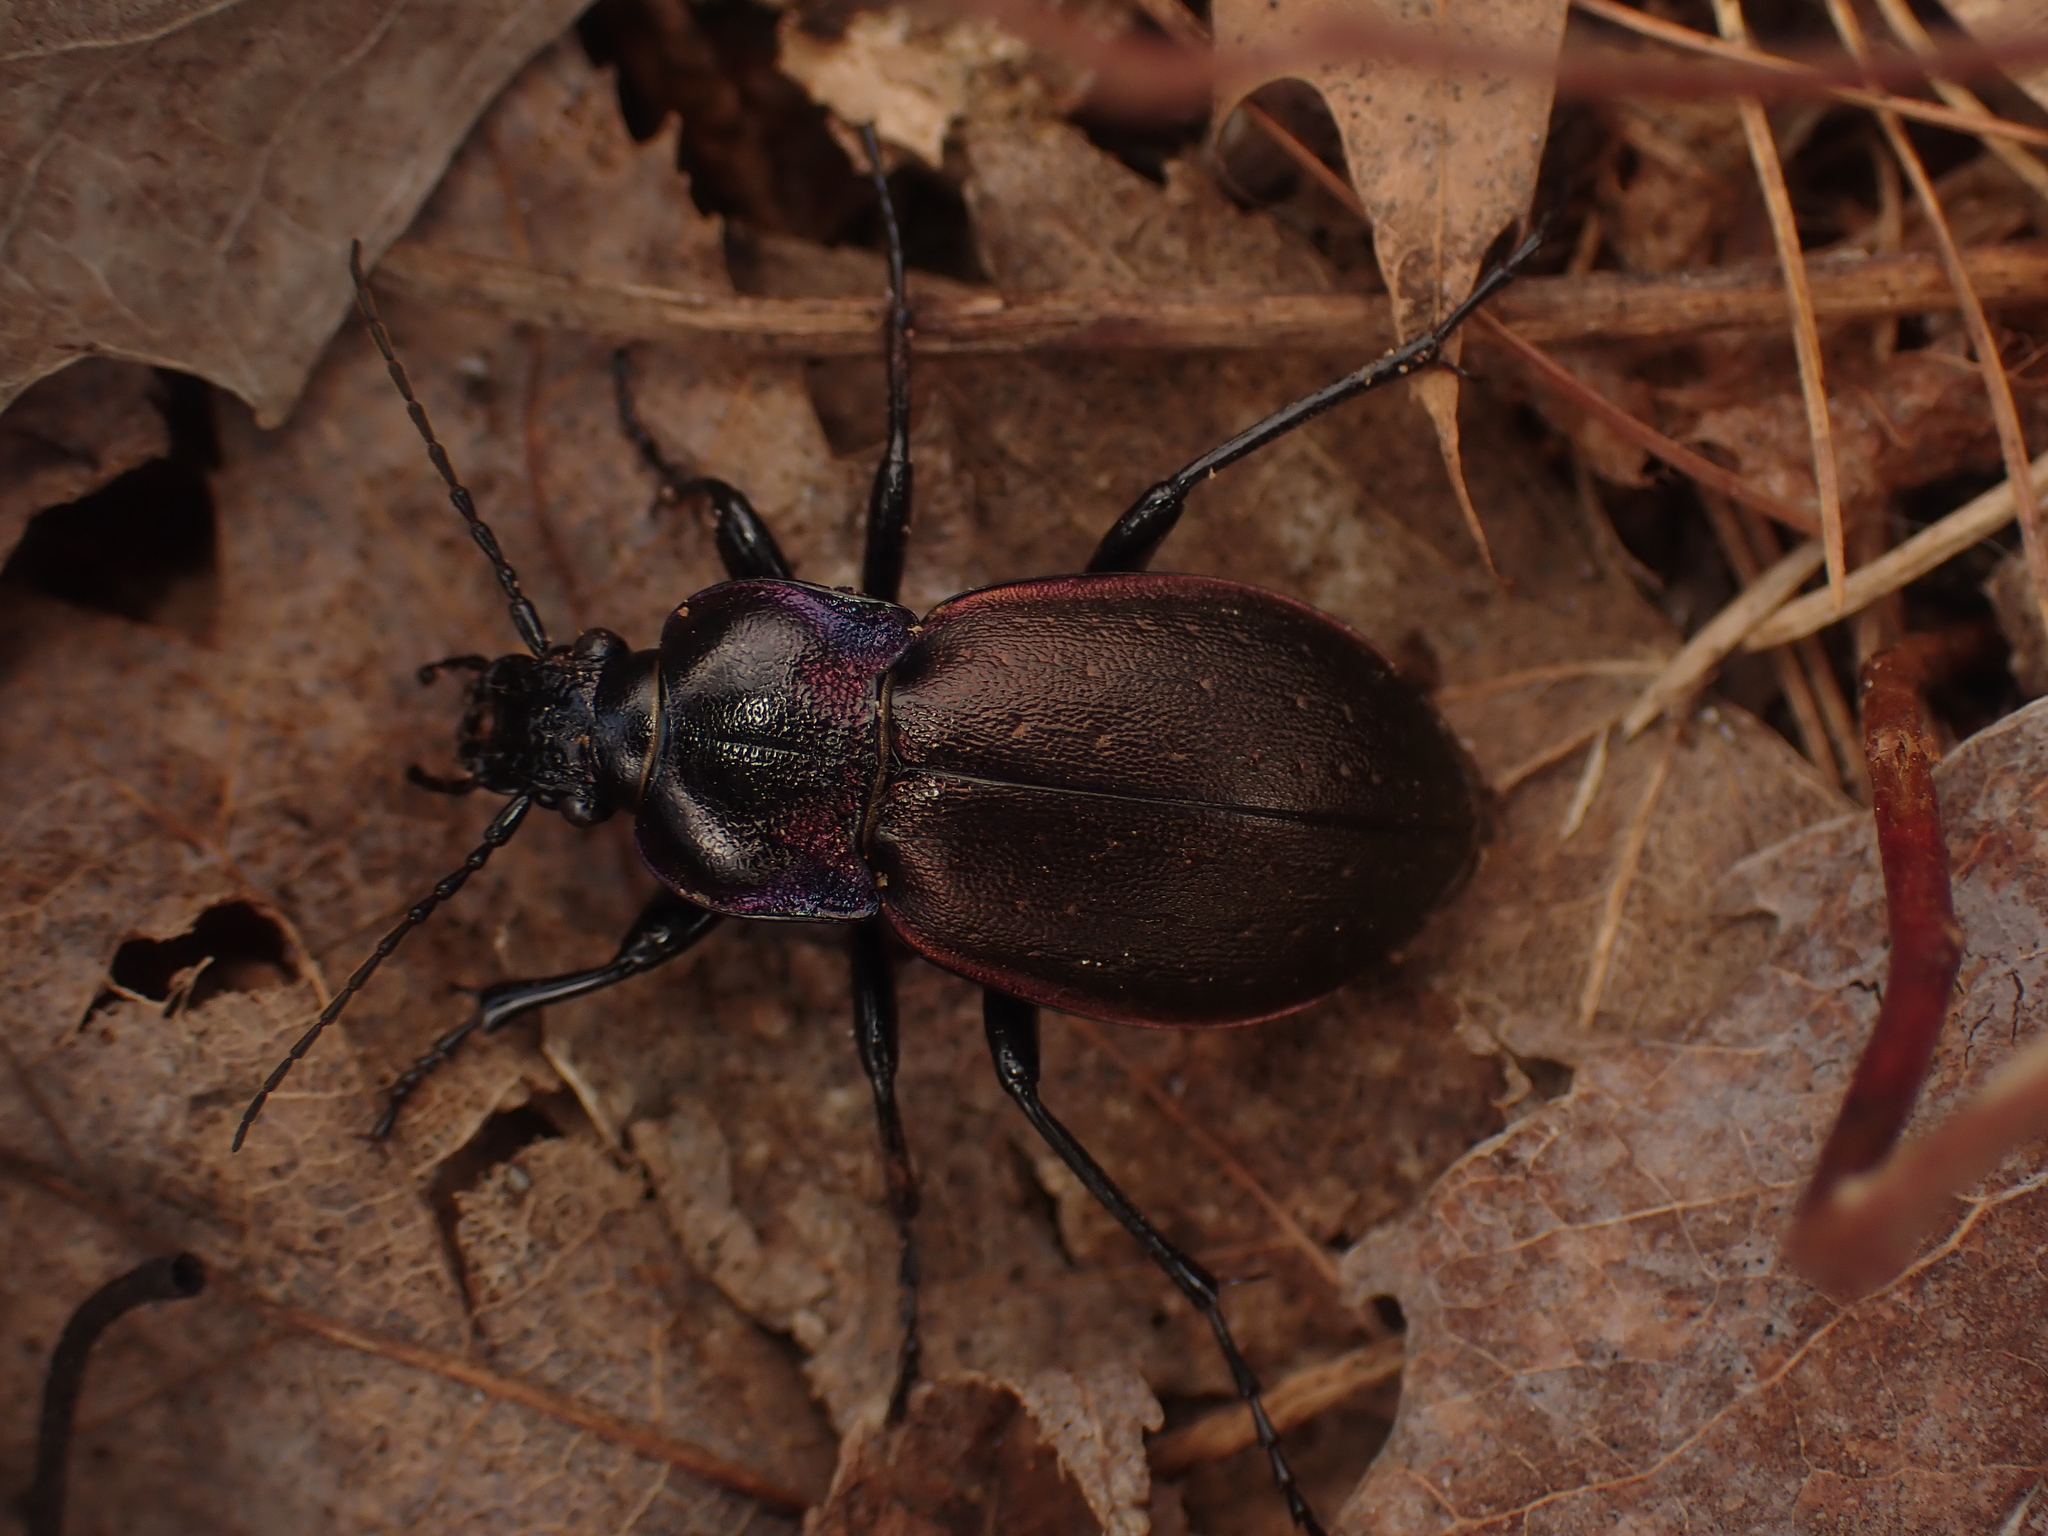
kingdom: Animalia
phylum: Arthropoda
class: Insecta
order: Coleoptera
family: Carabidae
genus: Carabus
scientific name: Carabus nemoralis
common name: European ground beetle
